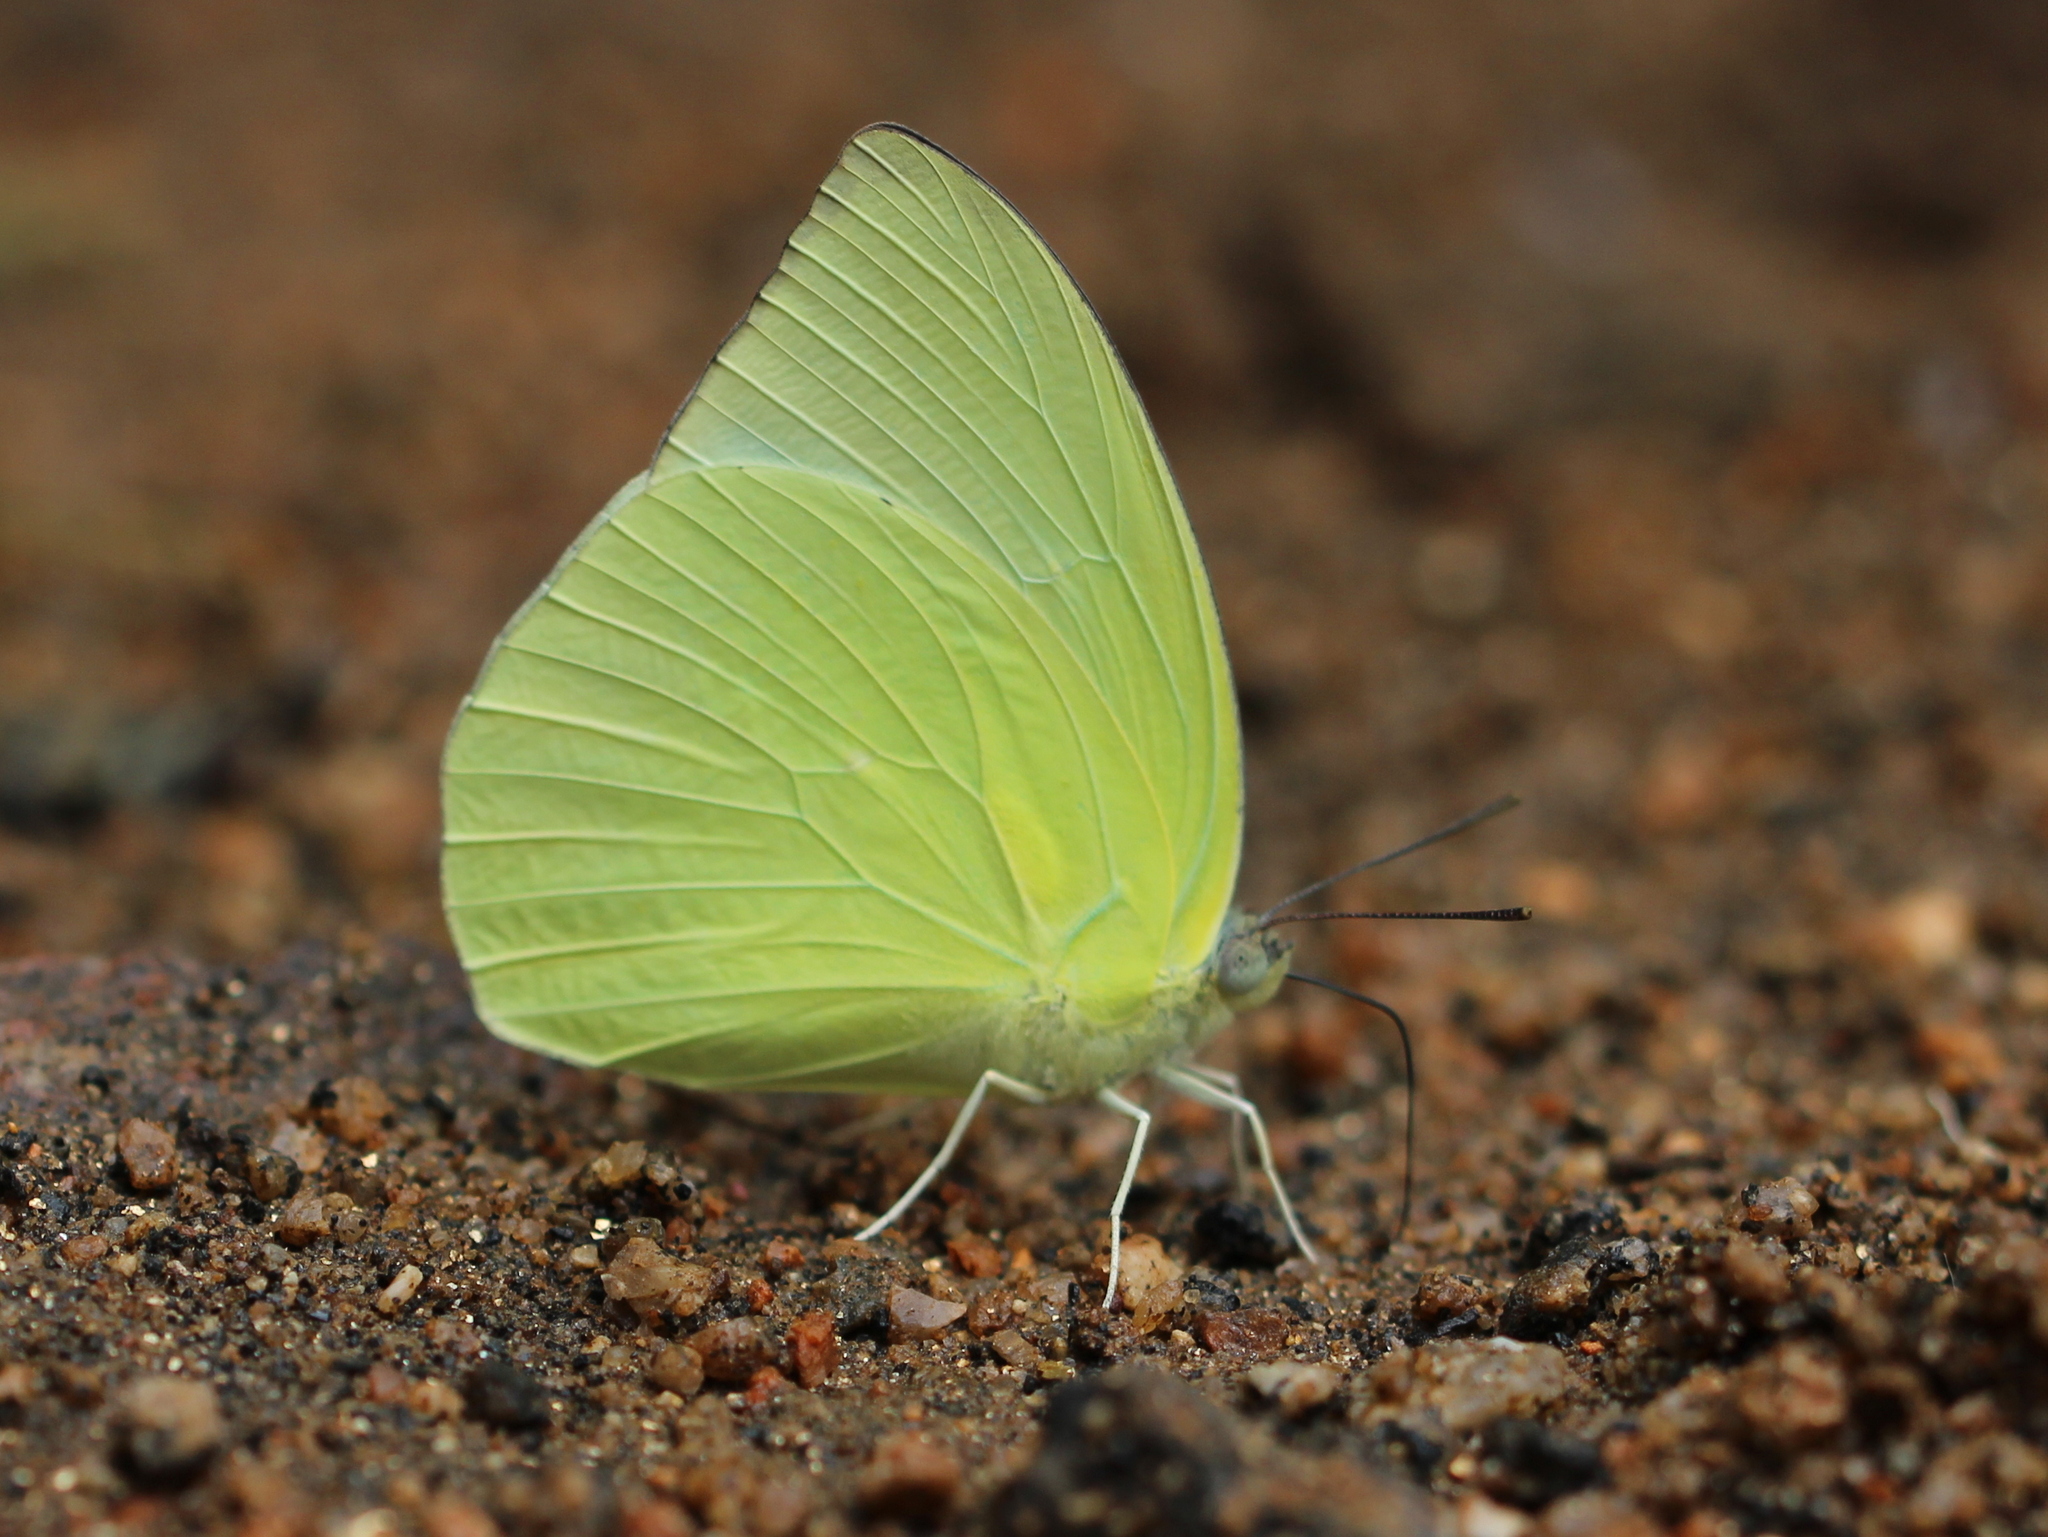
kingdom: Animalia
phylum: Arthropoda
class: Insecta
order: Lepidoptera
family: Pieridae
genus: Catopsilia
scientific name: Catopsilia pomona
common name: Common emigrant
